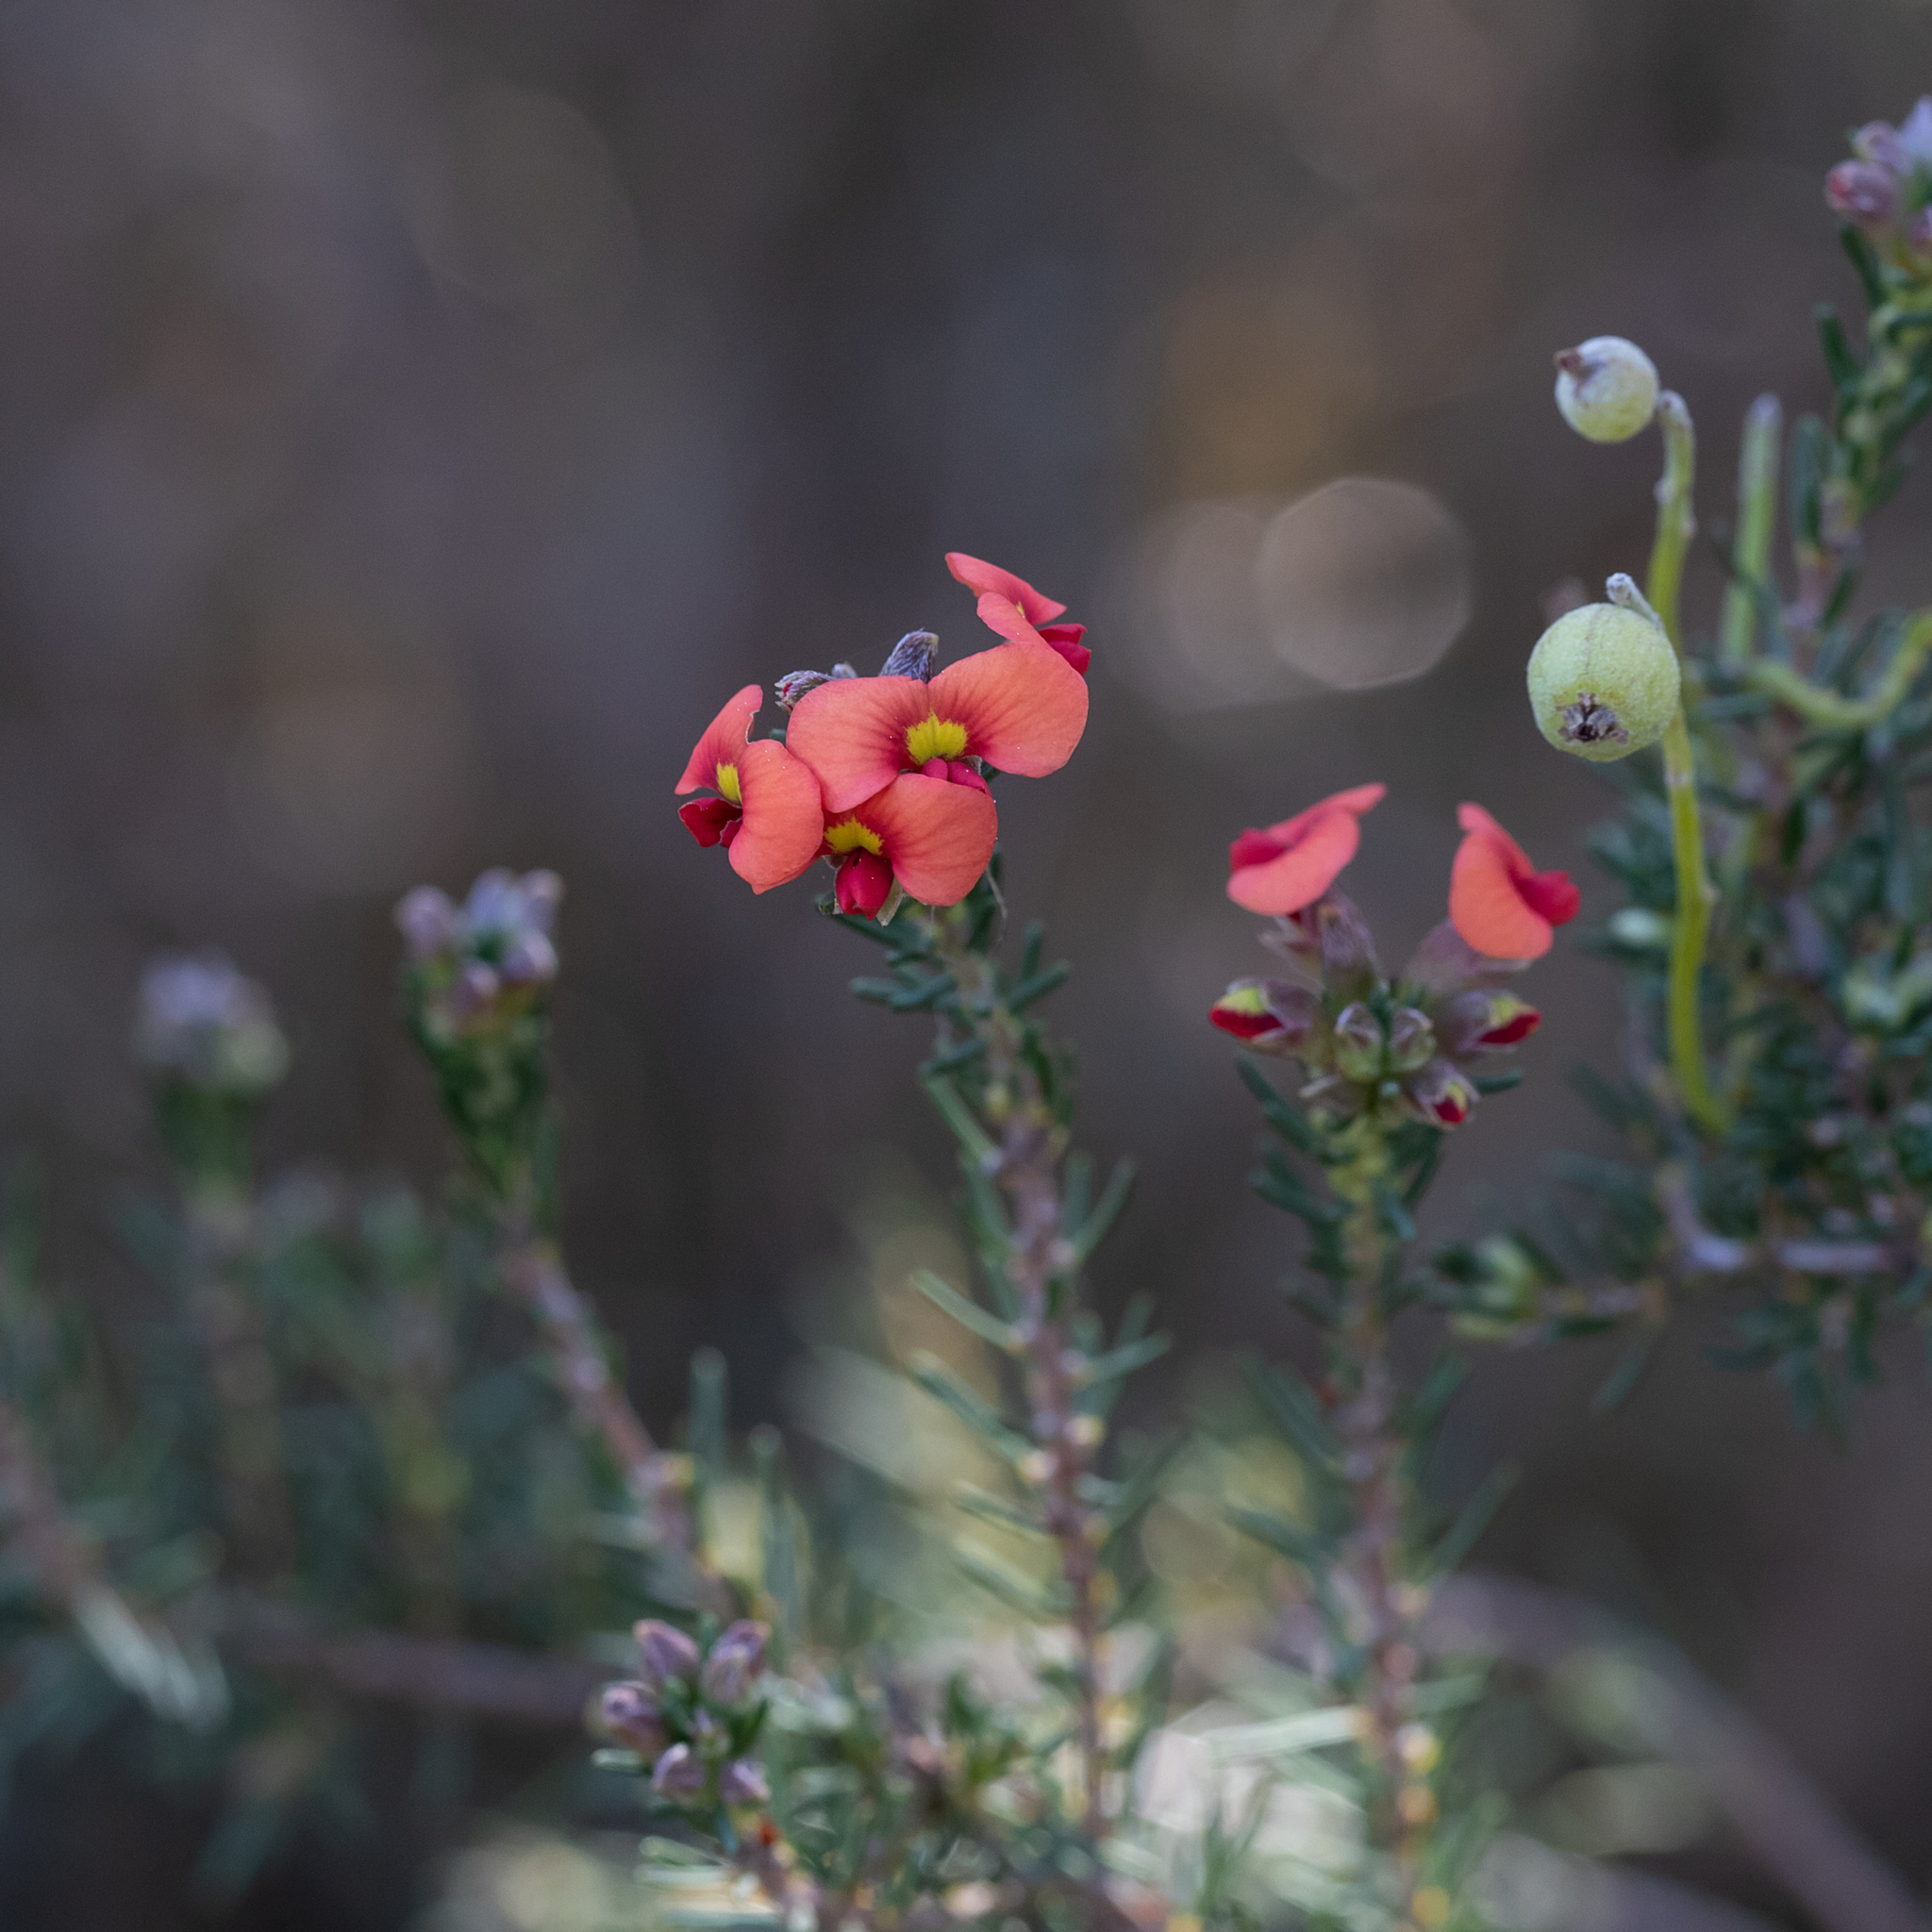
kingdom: Plantae
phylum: Tracheophyta
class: Magnoliopsida
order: Fabales
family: Fabaceae
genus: Dillwynia
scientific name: Dillwynia sericea
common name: Showy parrot-pea
